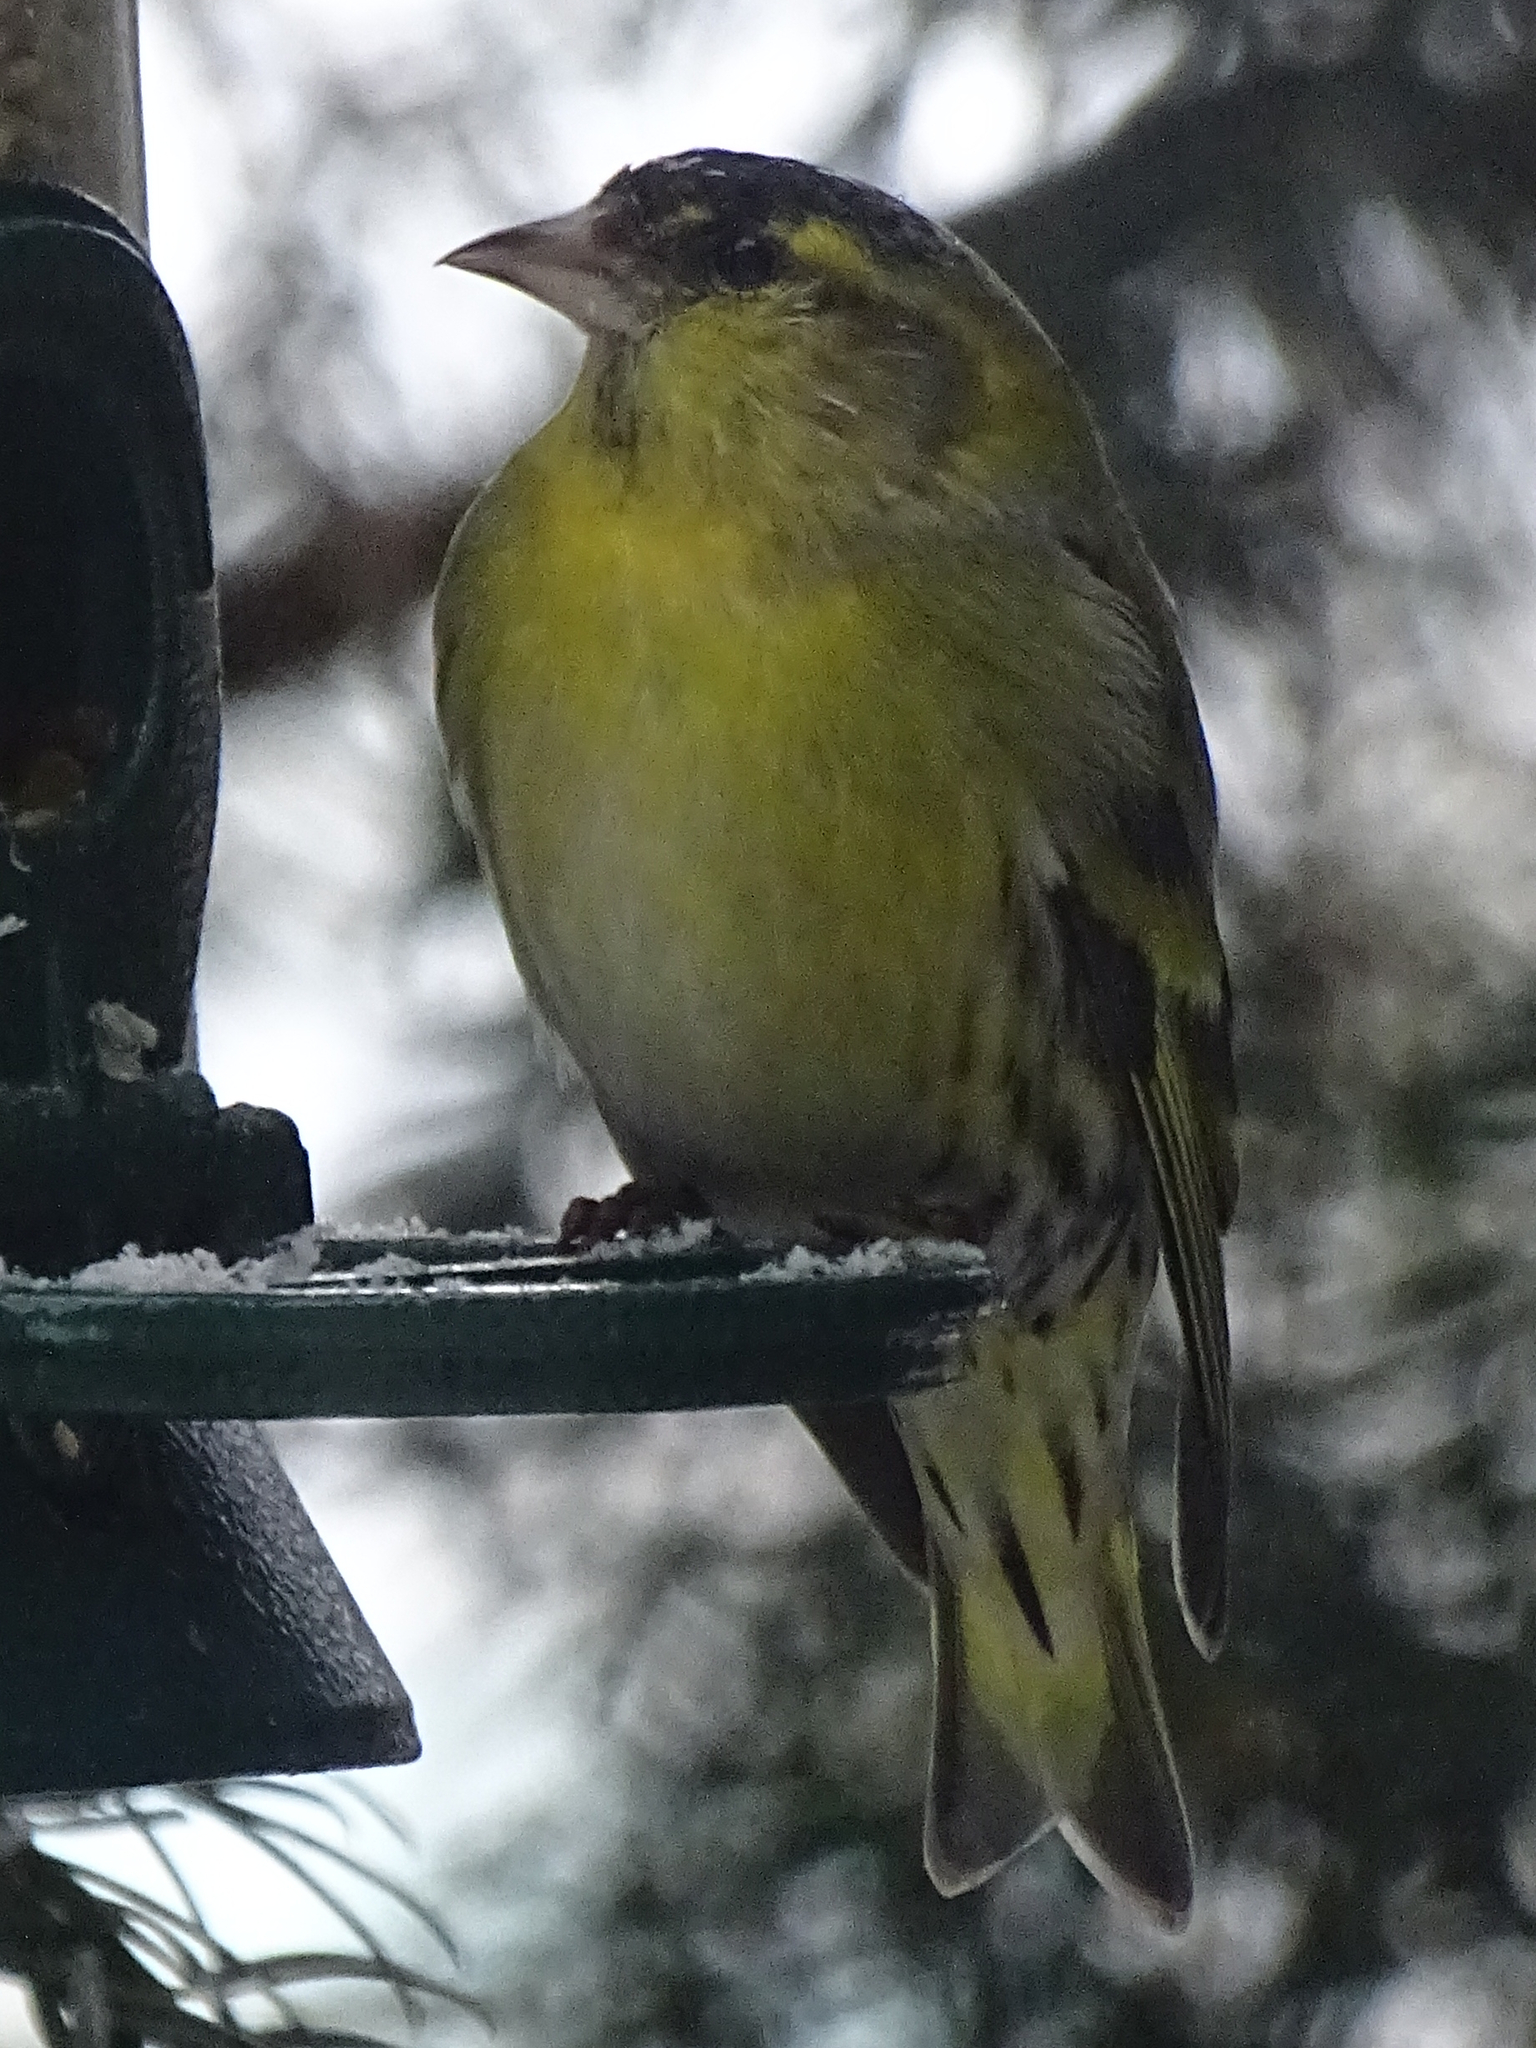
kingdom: Animalia
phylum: Chordata
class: Aves
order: Passeriformes
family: Fringillidae
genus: Spinus
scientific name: Spinus spinus
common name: Eurasian siskin
